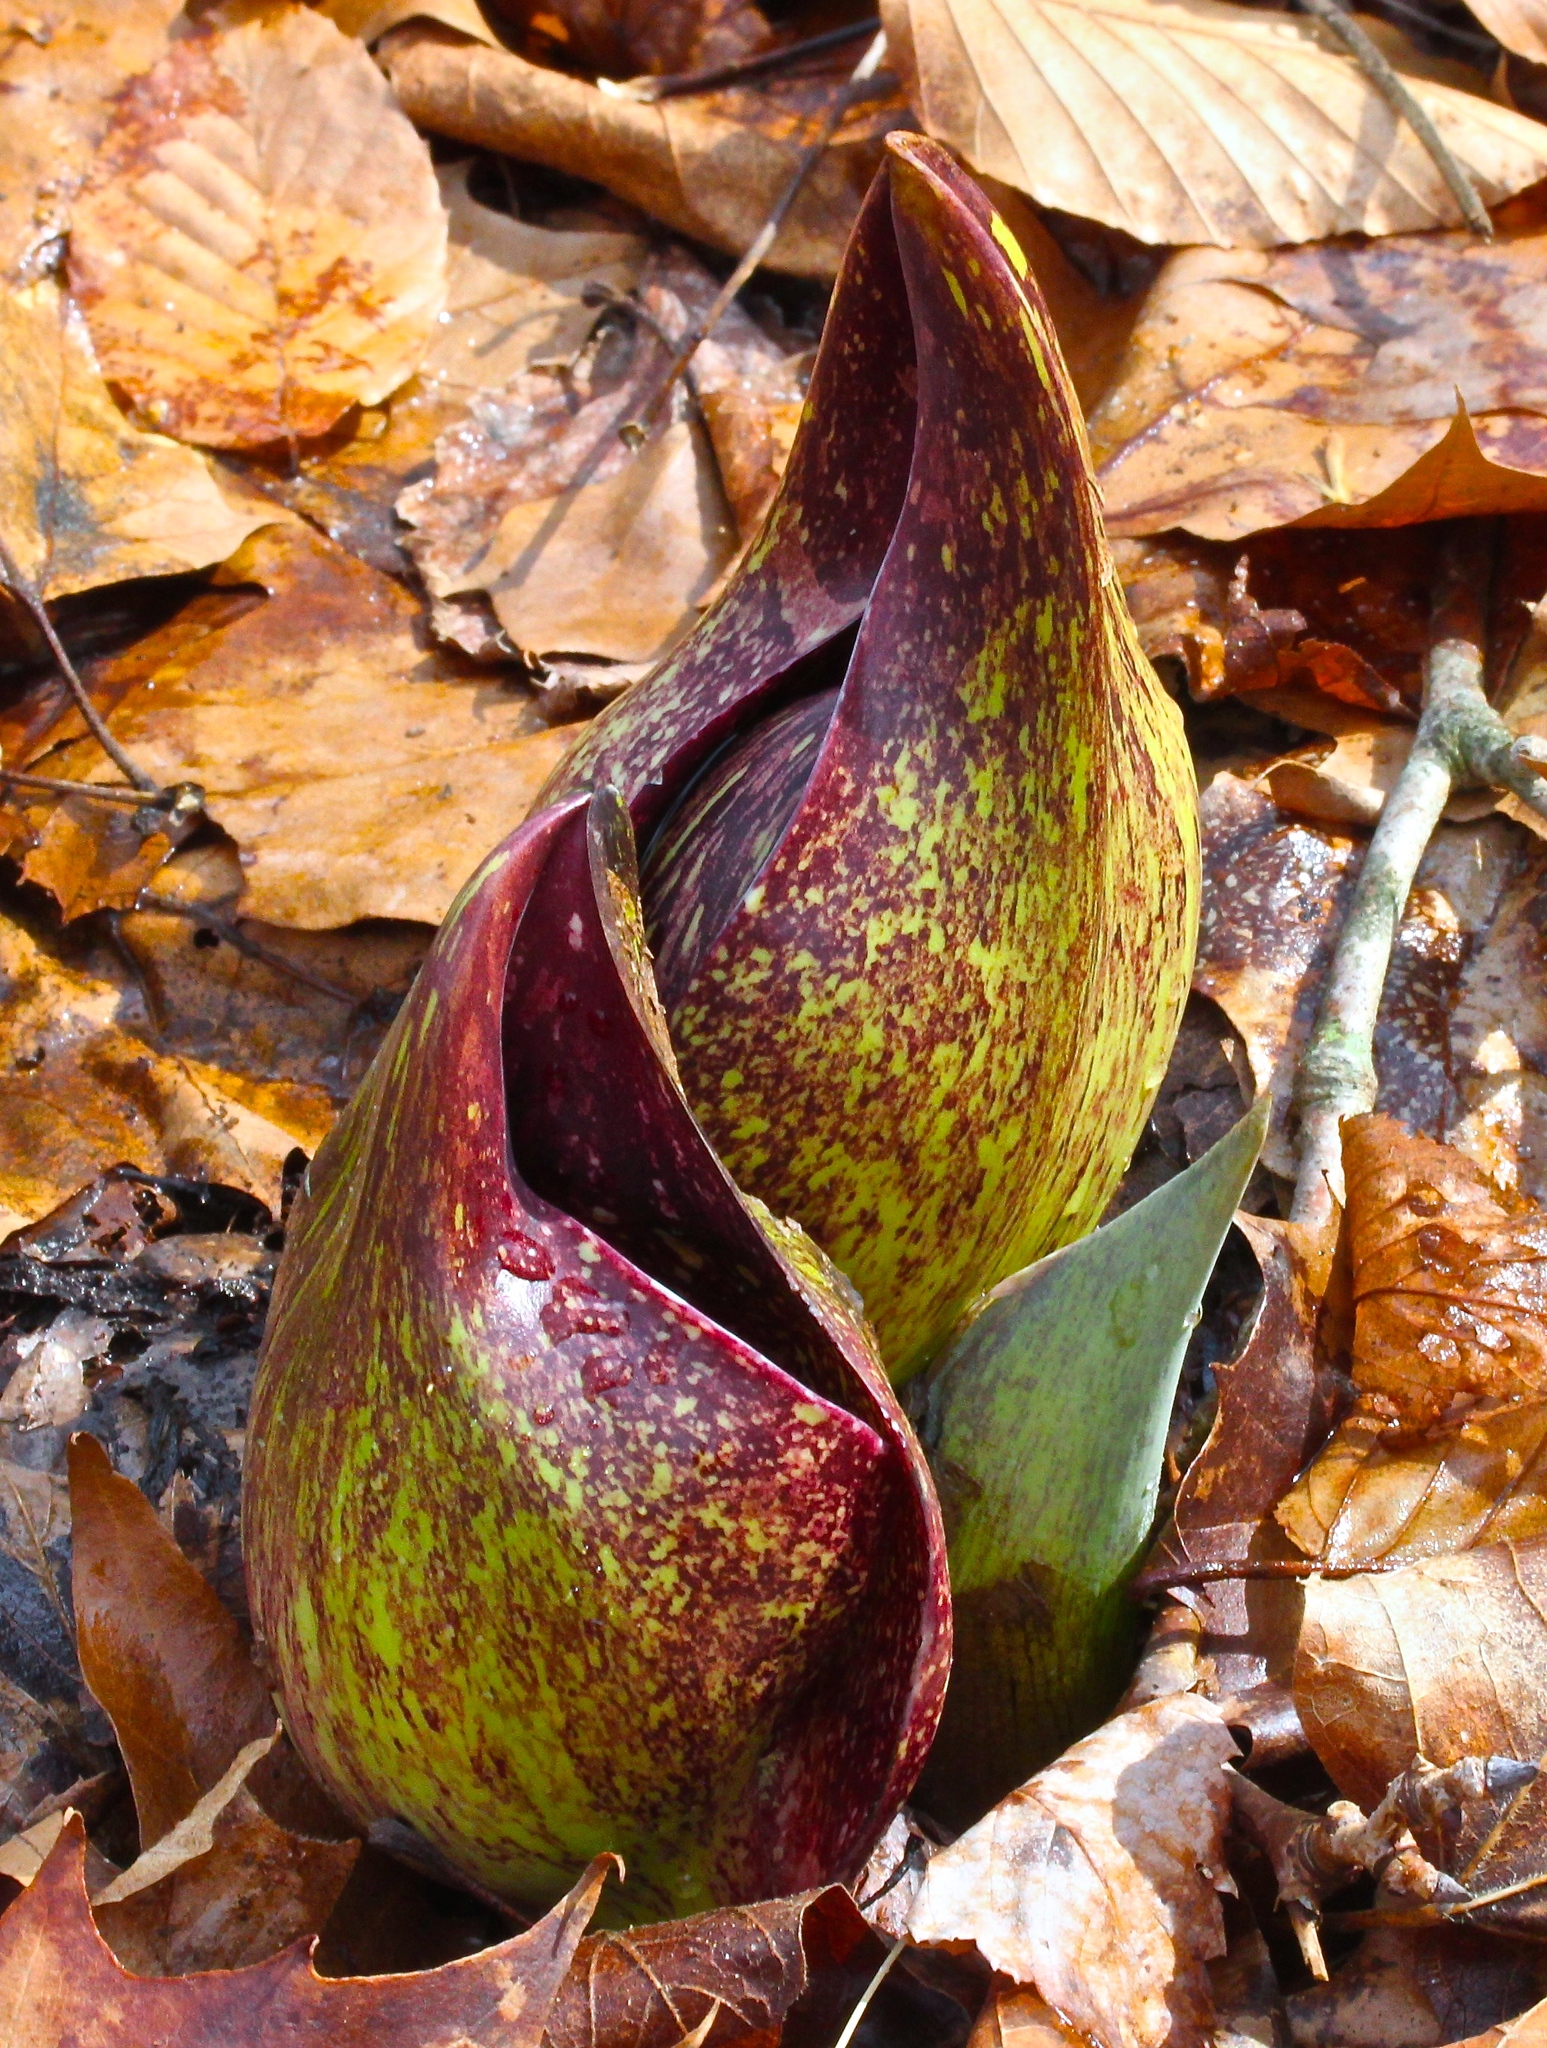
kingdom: Plantae
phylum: Tracheophyta
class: Liliopsida
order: Alismatales
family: Araceae
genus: Symplocarpus
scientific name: Symplocarpus foetidus
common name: Eastern skunk cabbage
